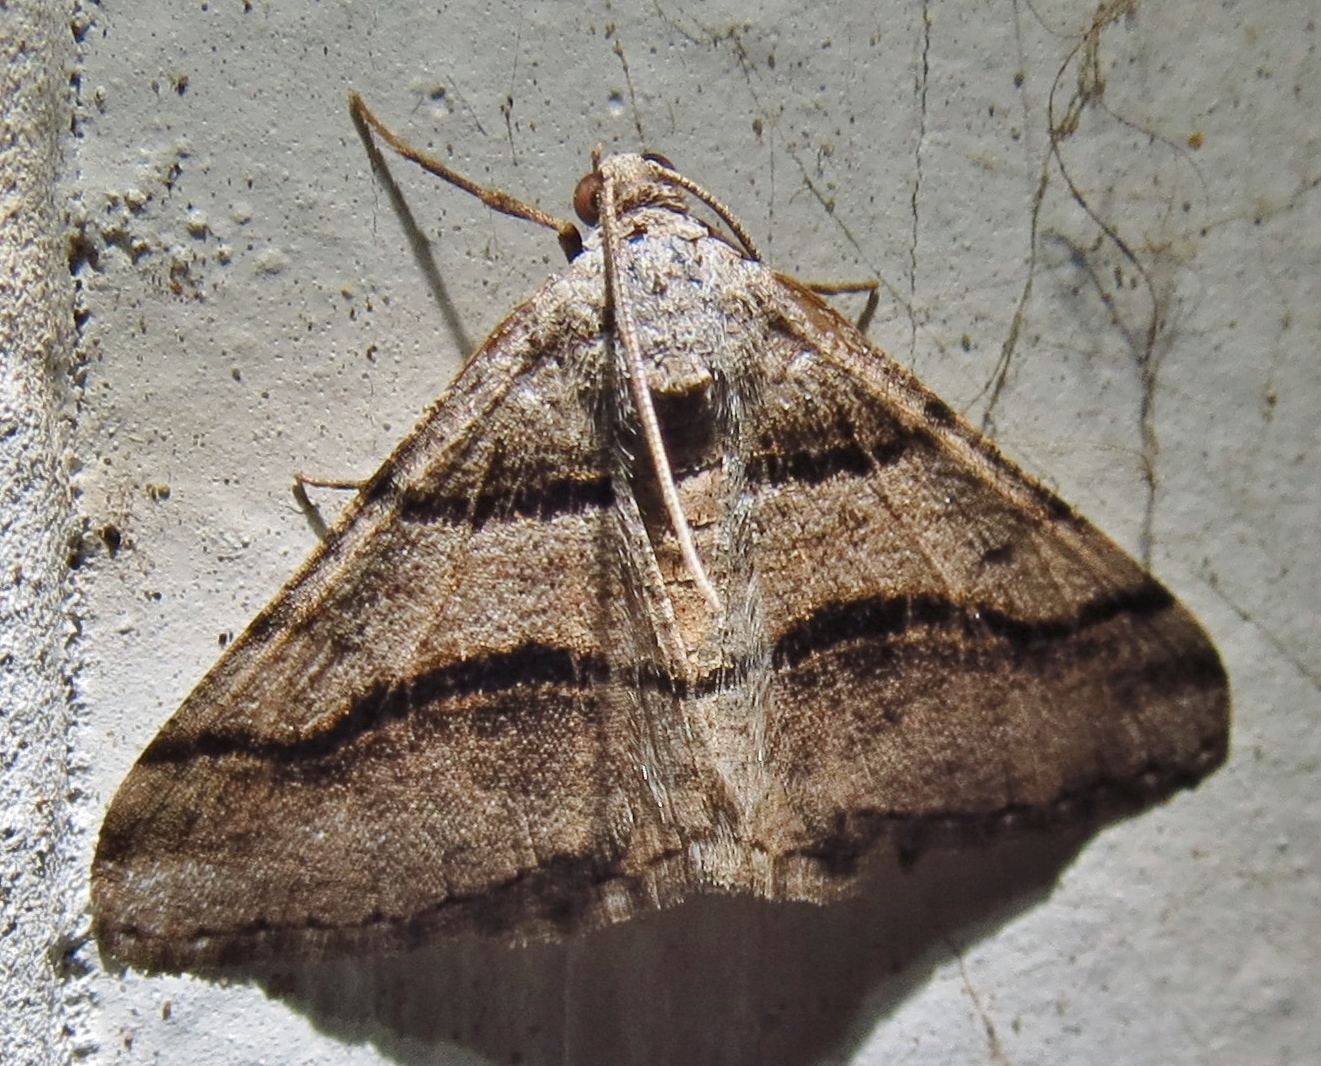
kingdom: Animalia
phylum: Arthropoda
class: Insecta
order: Lepidoptera
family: Geometridae
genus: Digrammia
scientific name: Digrammia continuata
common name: Curve-lined angle
